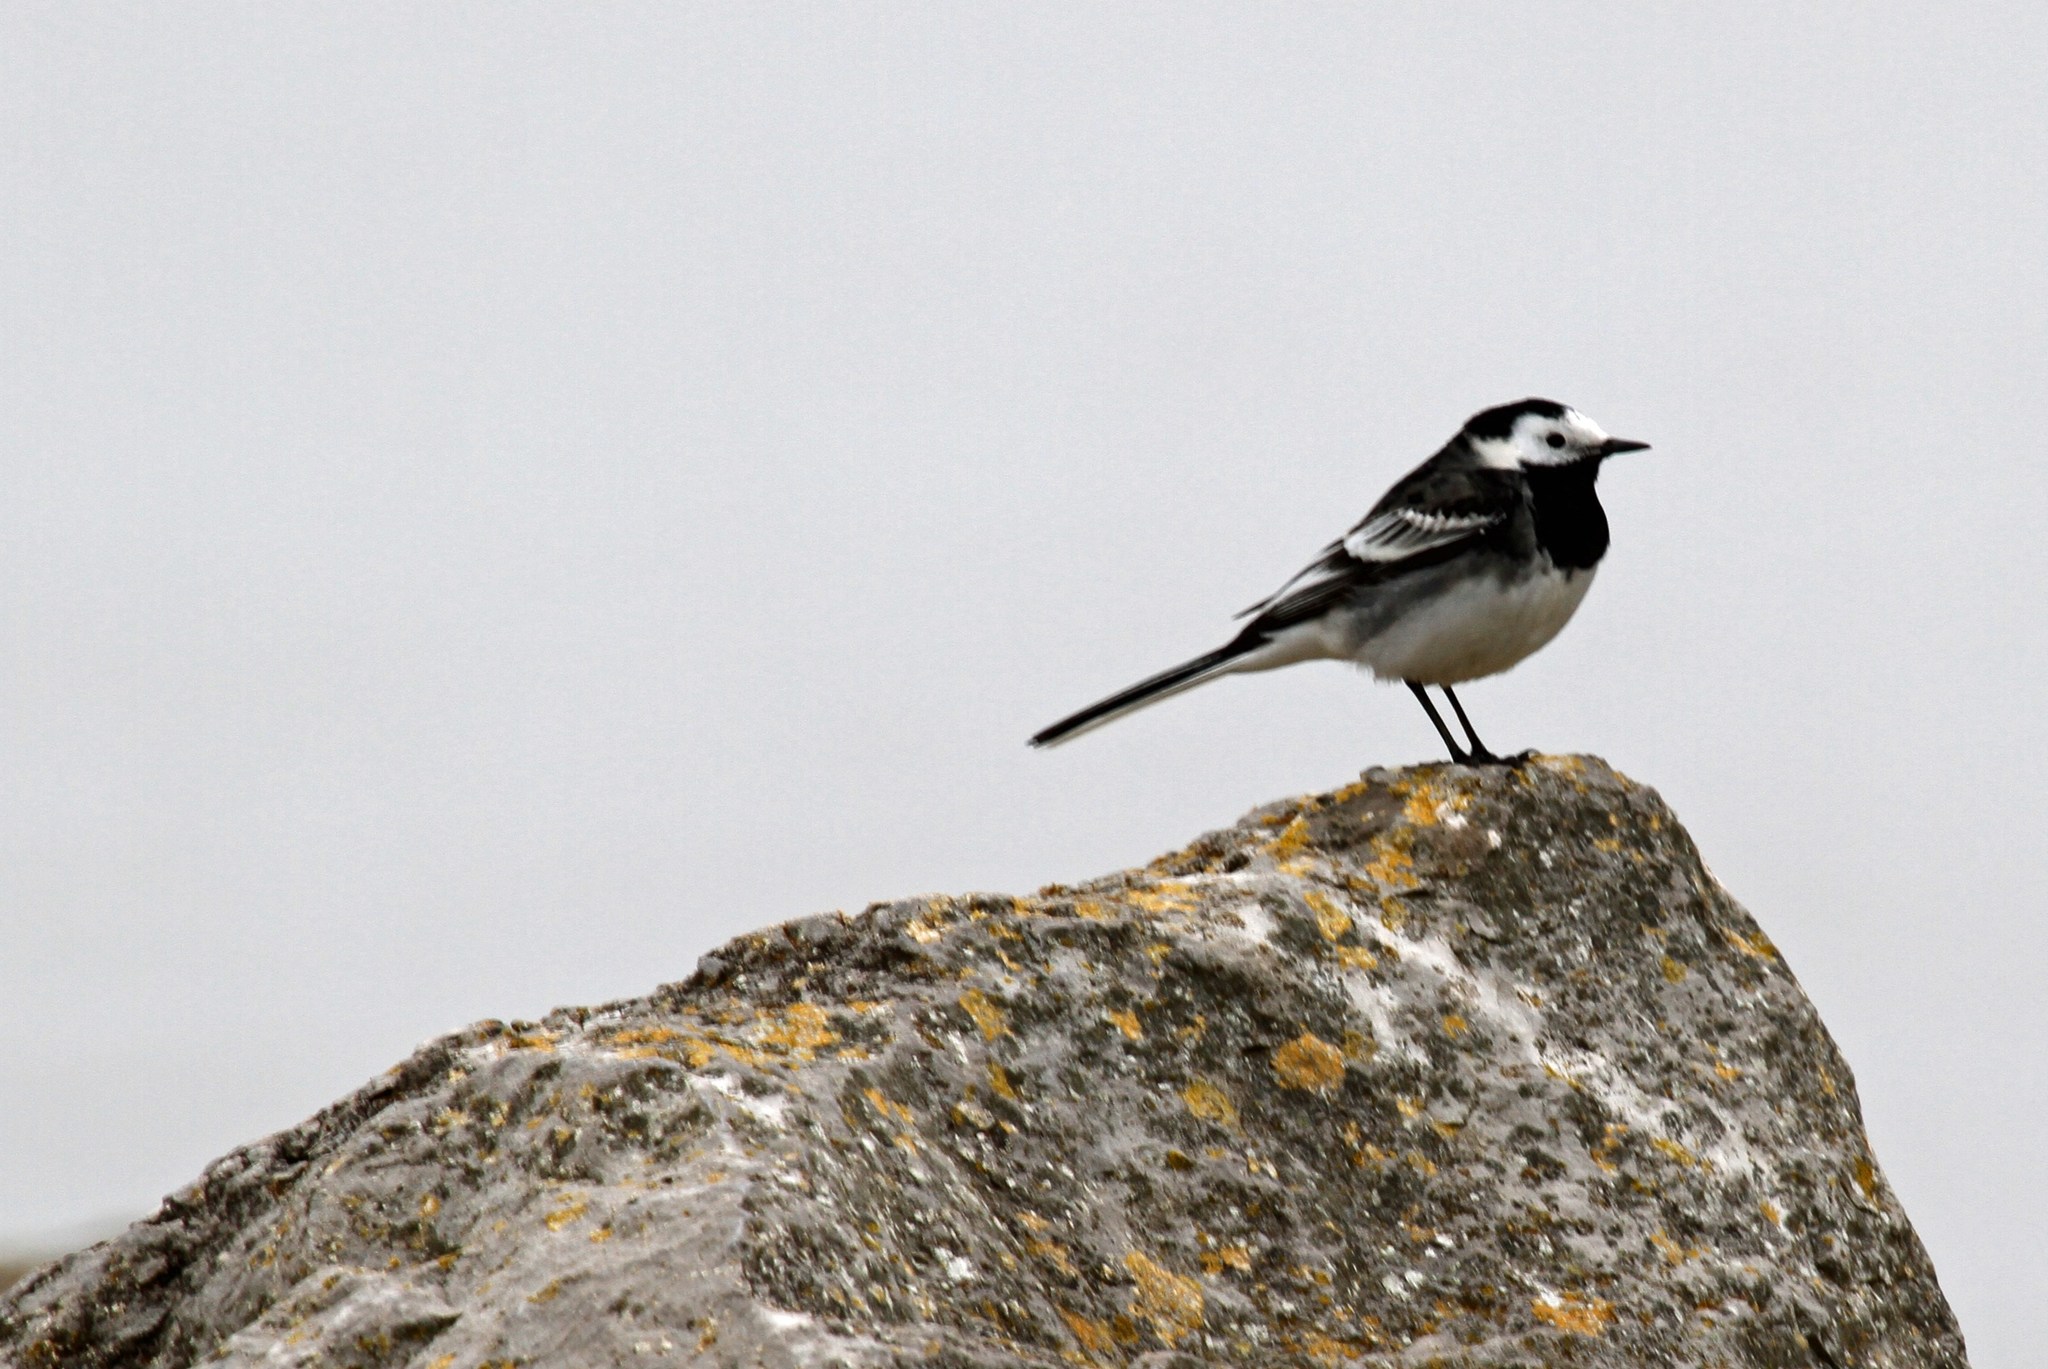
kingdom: Animalia
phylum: Chordata
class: Aves
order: Passeriformes
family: Motacillidae
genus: Motacilla
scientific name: Motacilla alba
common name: White wagtail
